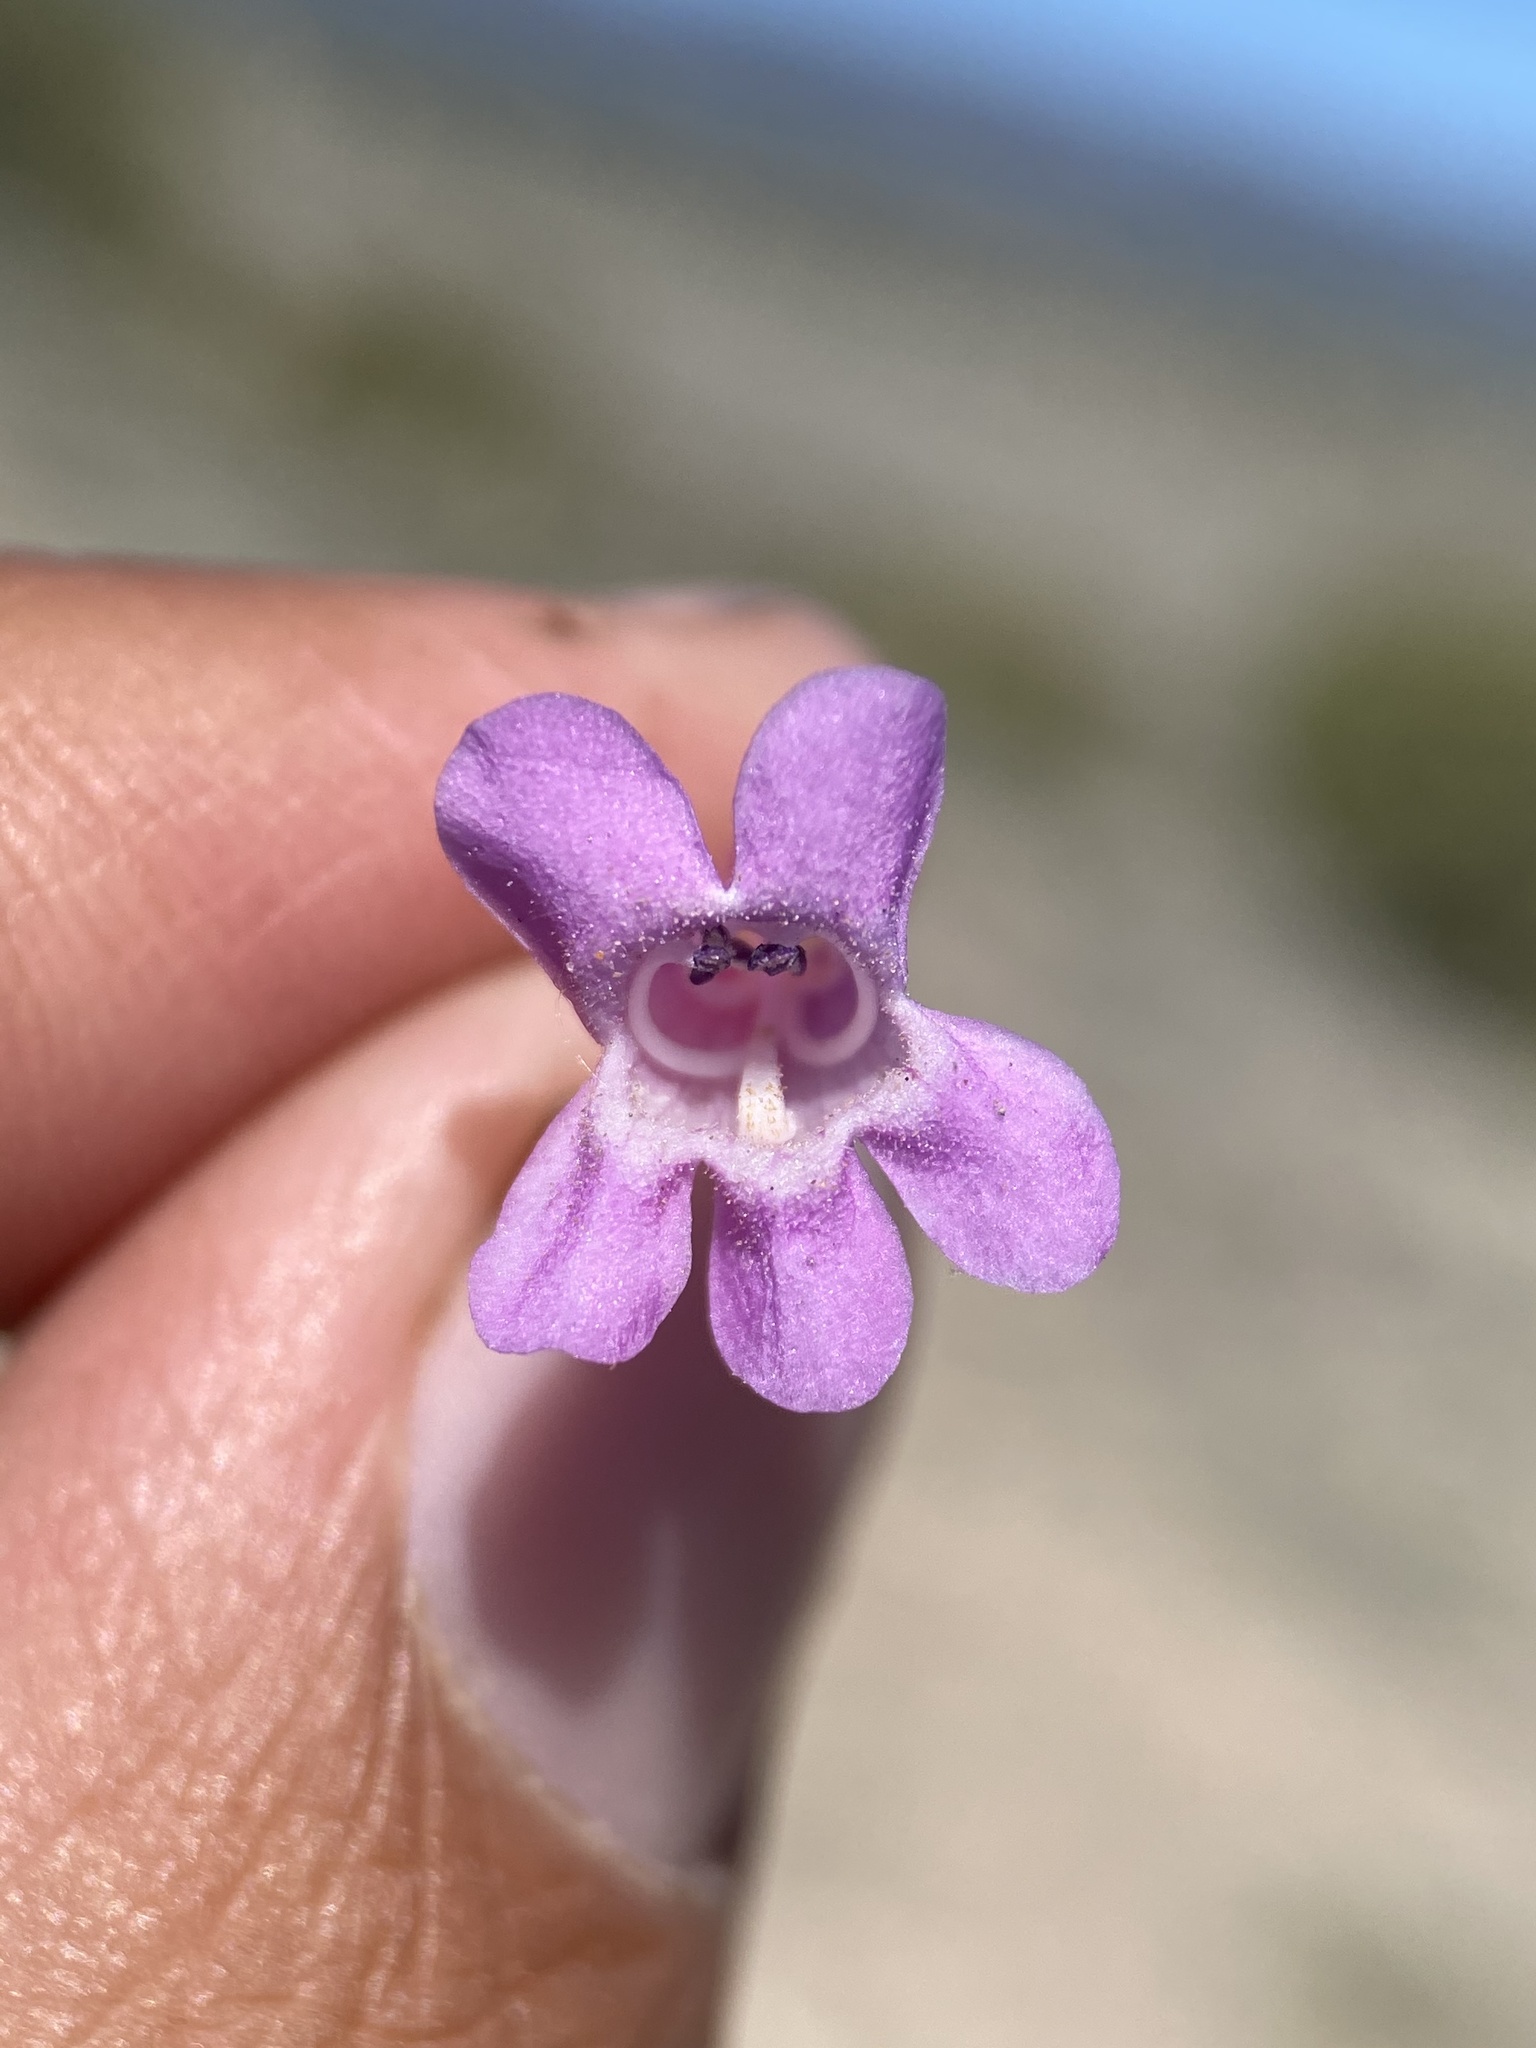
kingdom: Plantae
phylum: Tracheophyta
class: Magnoliopsida
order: Lamiales
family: Plantaginaceae
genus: Penstemon
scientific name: Penstemon confusus
